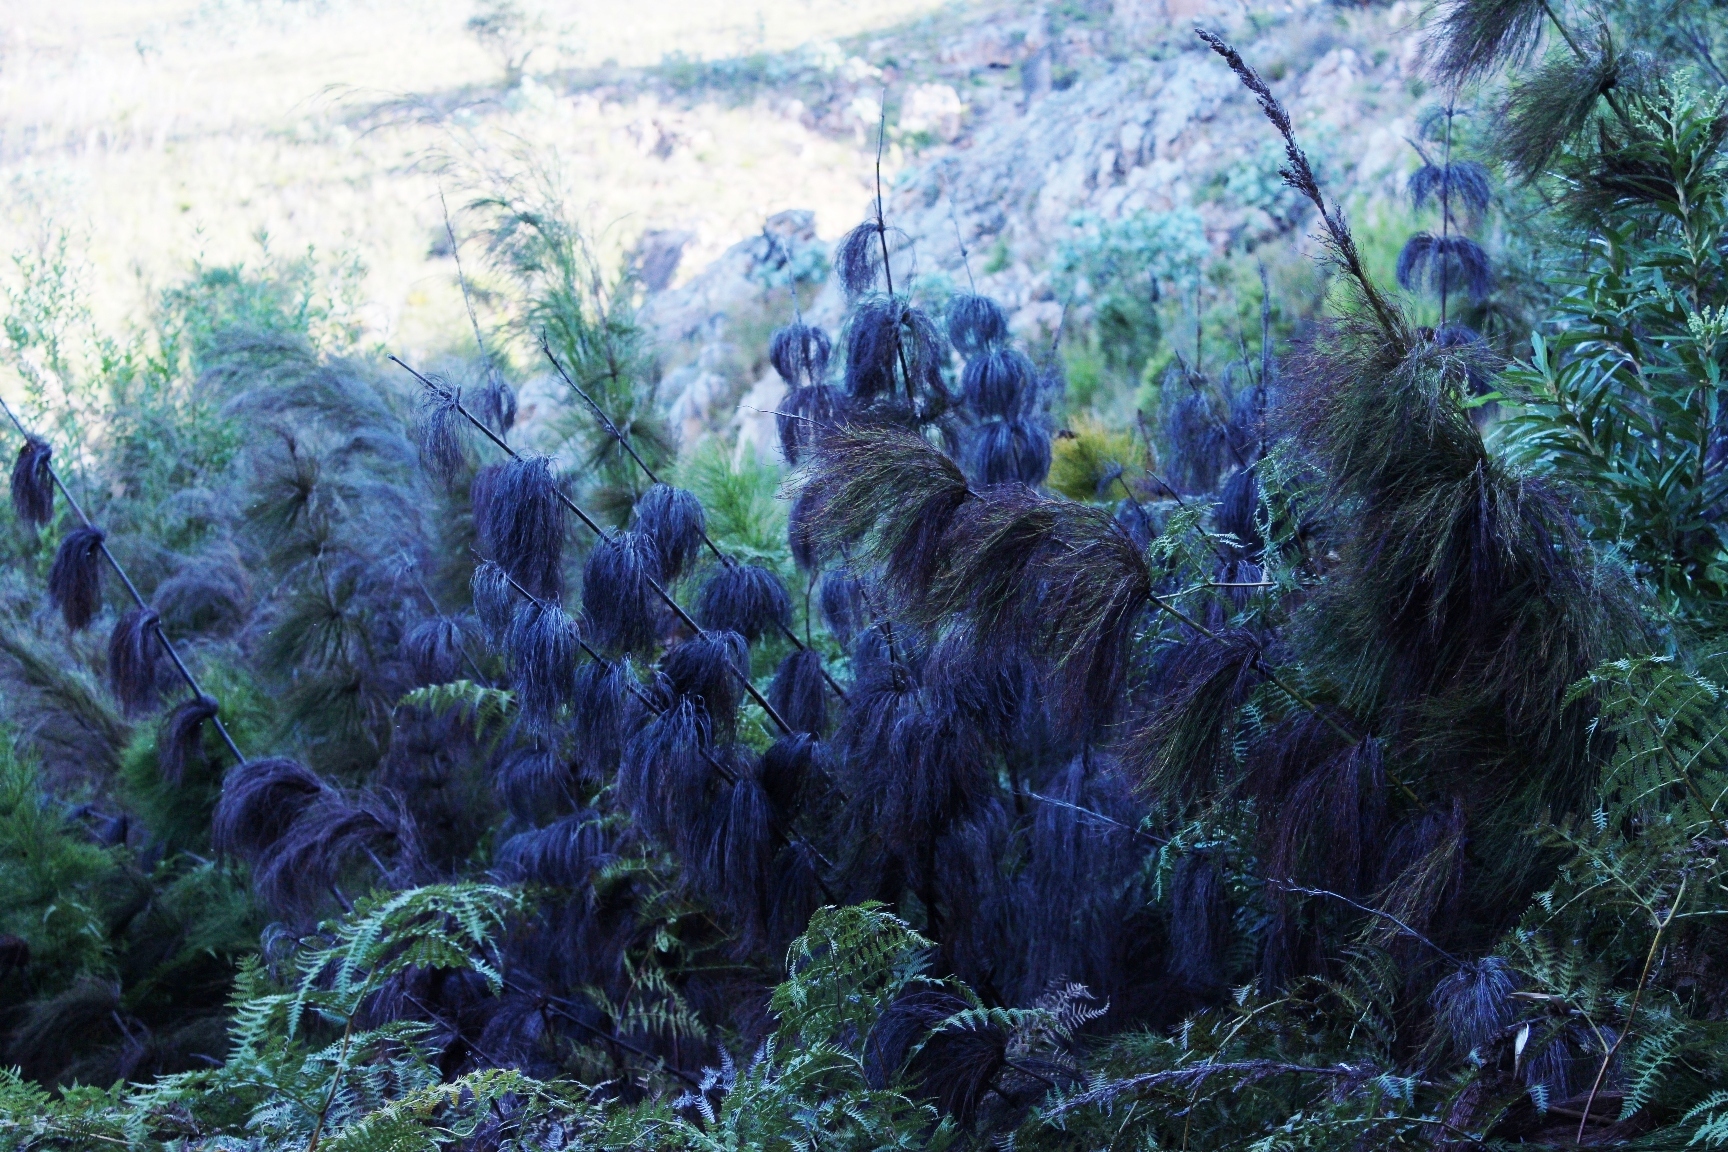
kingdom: Plantae
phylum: Tracheophyta
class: Liliopsida
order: Poales
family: Restionaceae
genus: Elegia
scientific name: Elegia capensis
